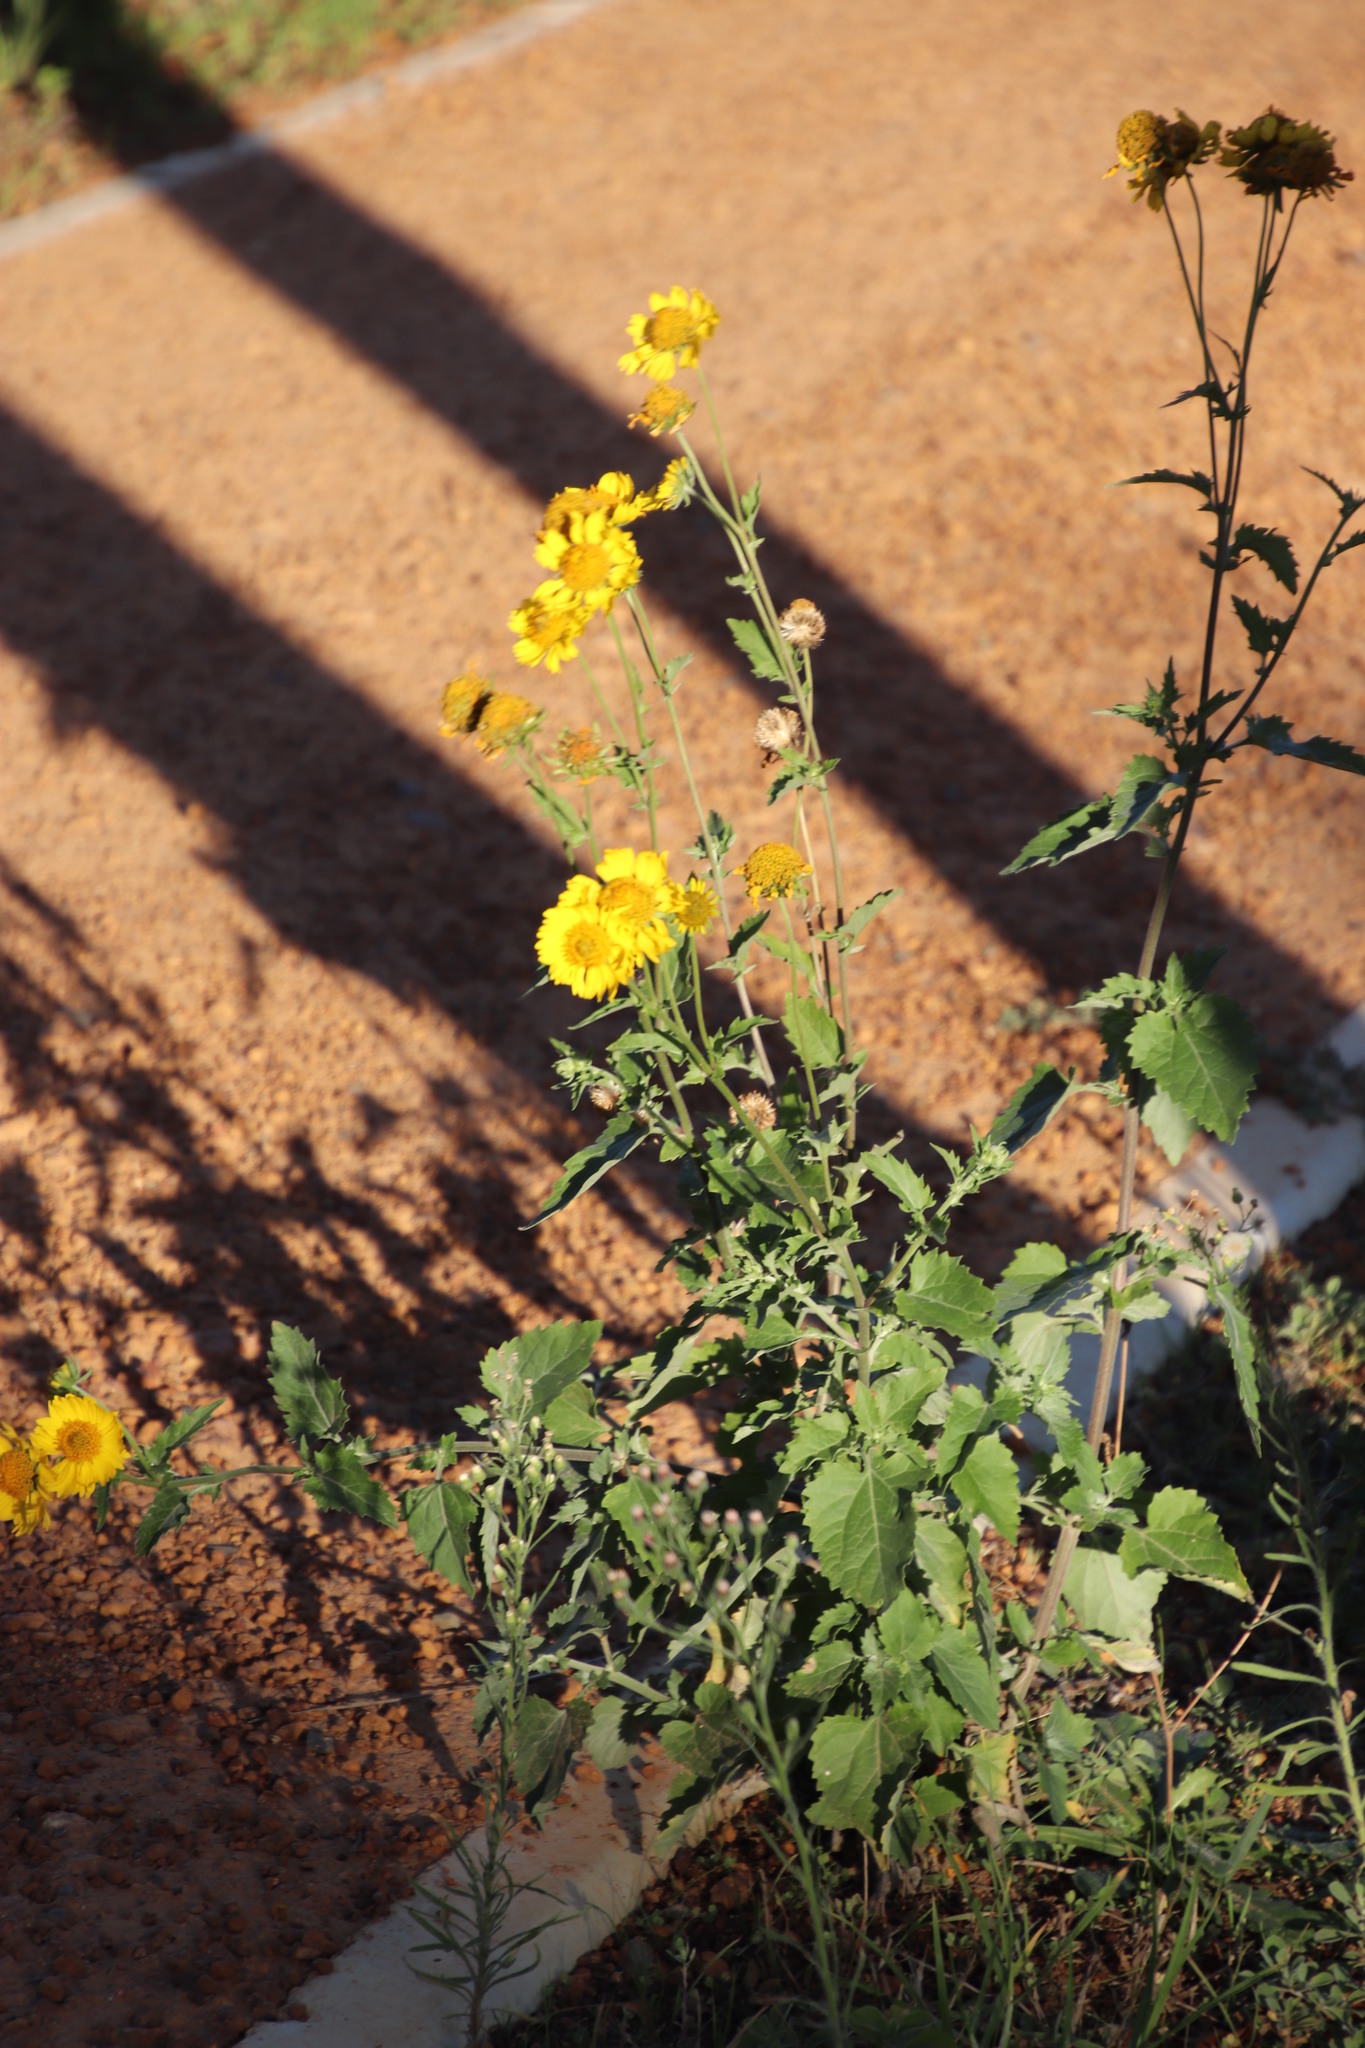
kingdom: Plantae
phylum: Tracheophyta
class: Magnoliopsida
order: Asterales
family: Asteraceae
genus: Verbesina
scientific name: Verbesina encelioides
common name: Golden crownbeard
